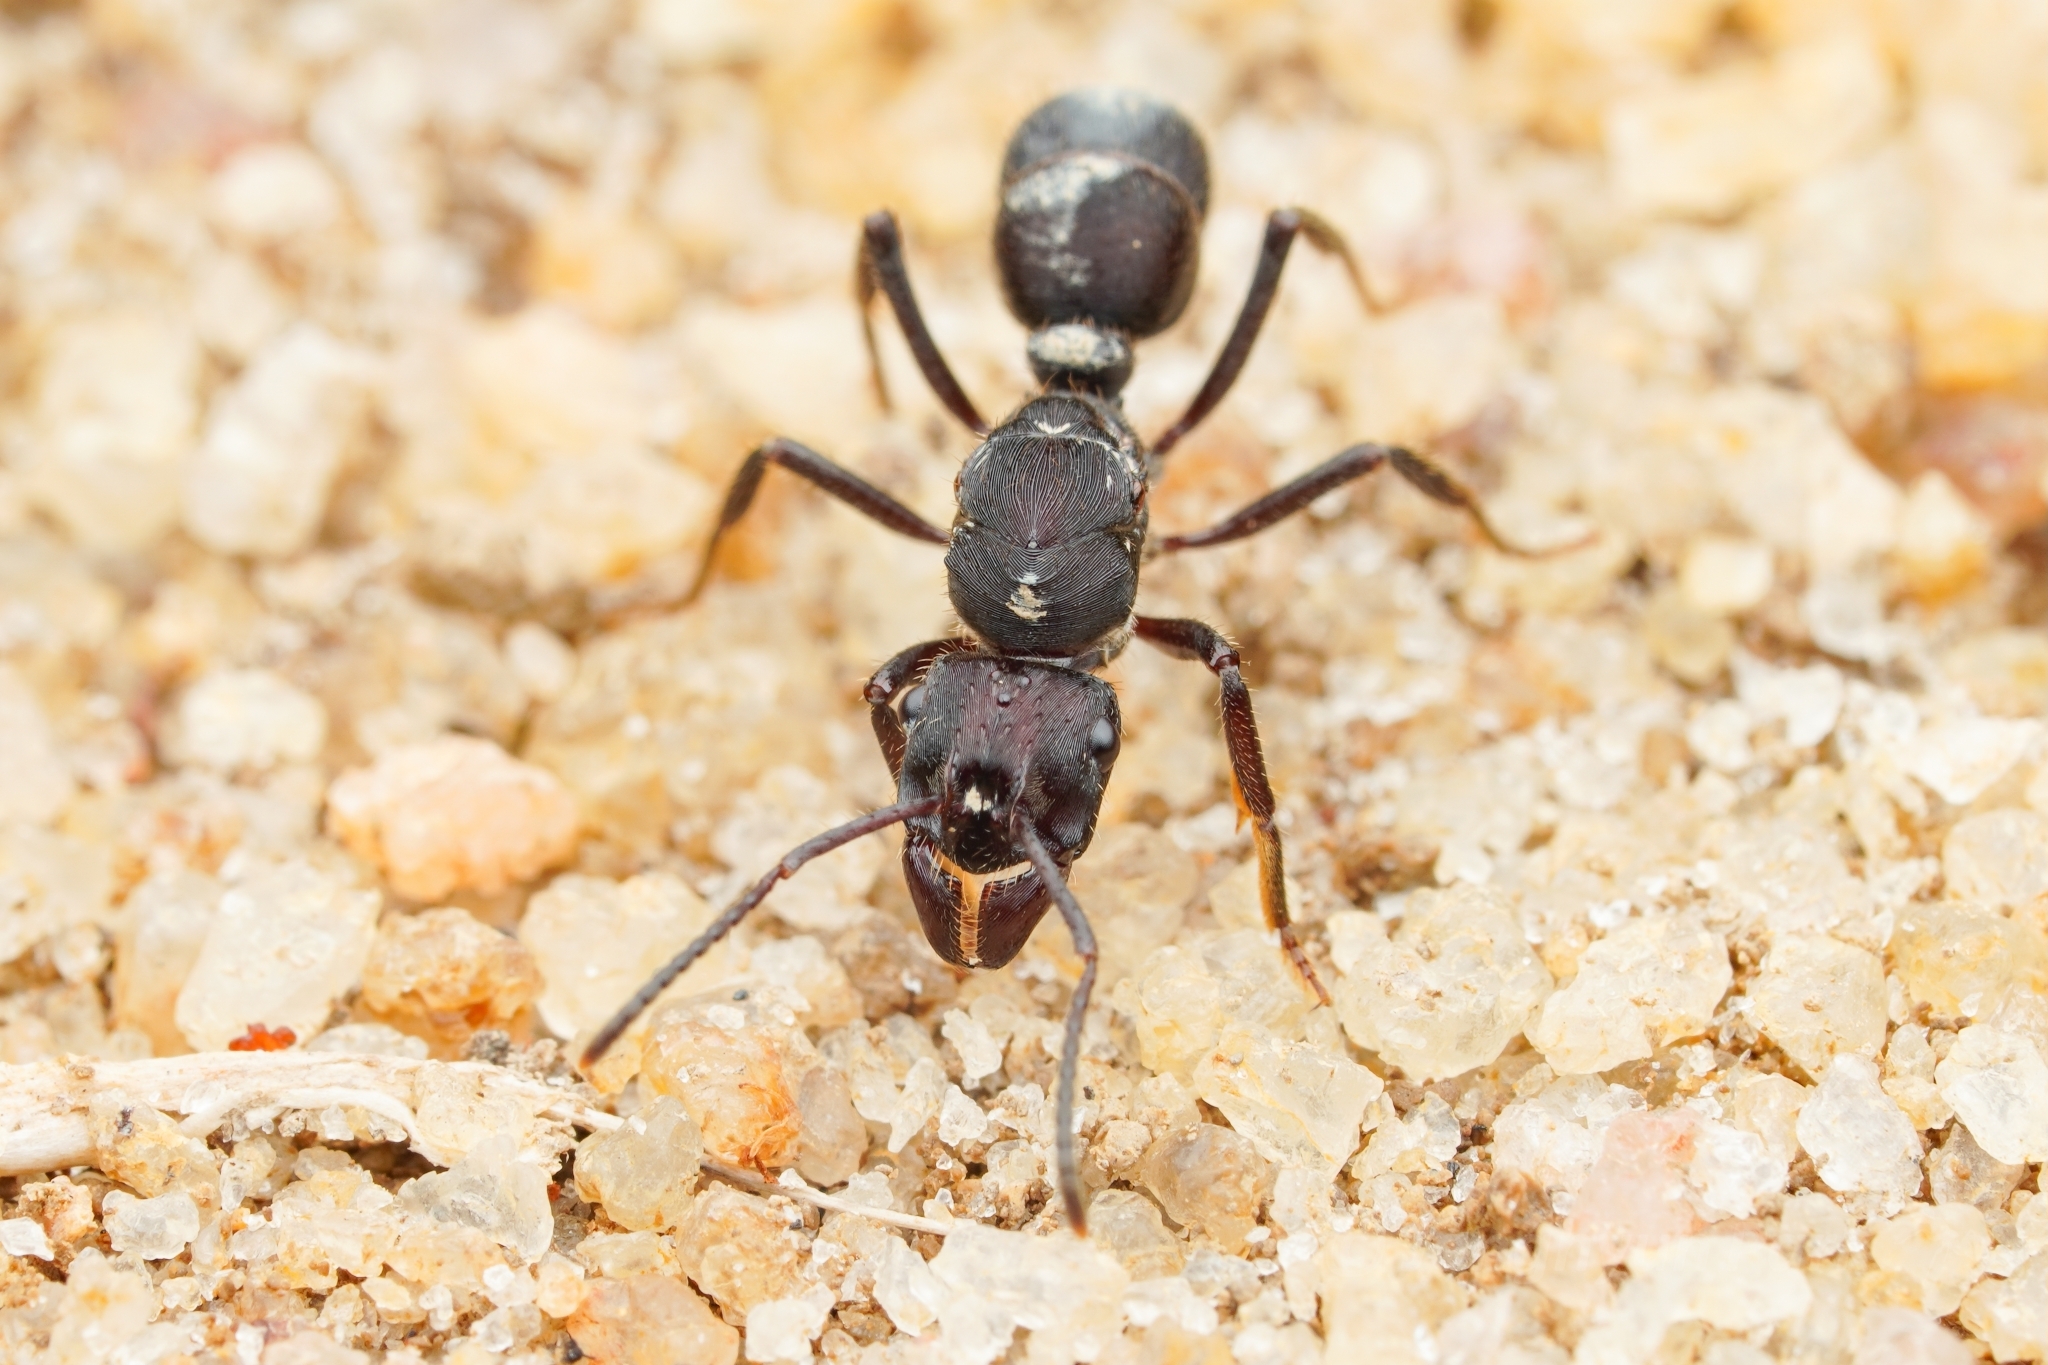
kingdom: Animalia
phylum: Arthropoda
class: Insecta
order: Hymenoptera
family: Formicidae
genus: Ectatomma
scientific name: Ectatomma brunneum
